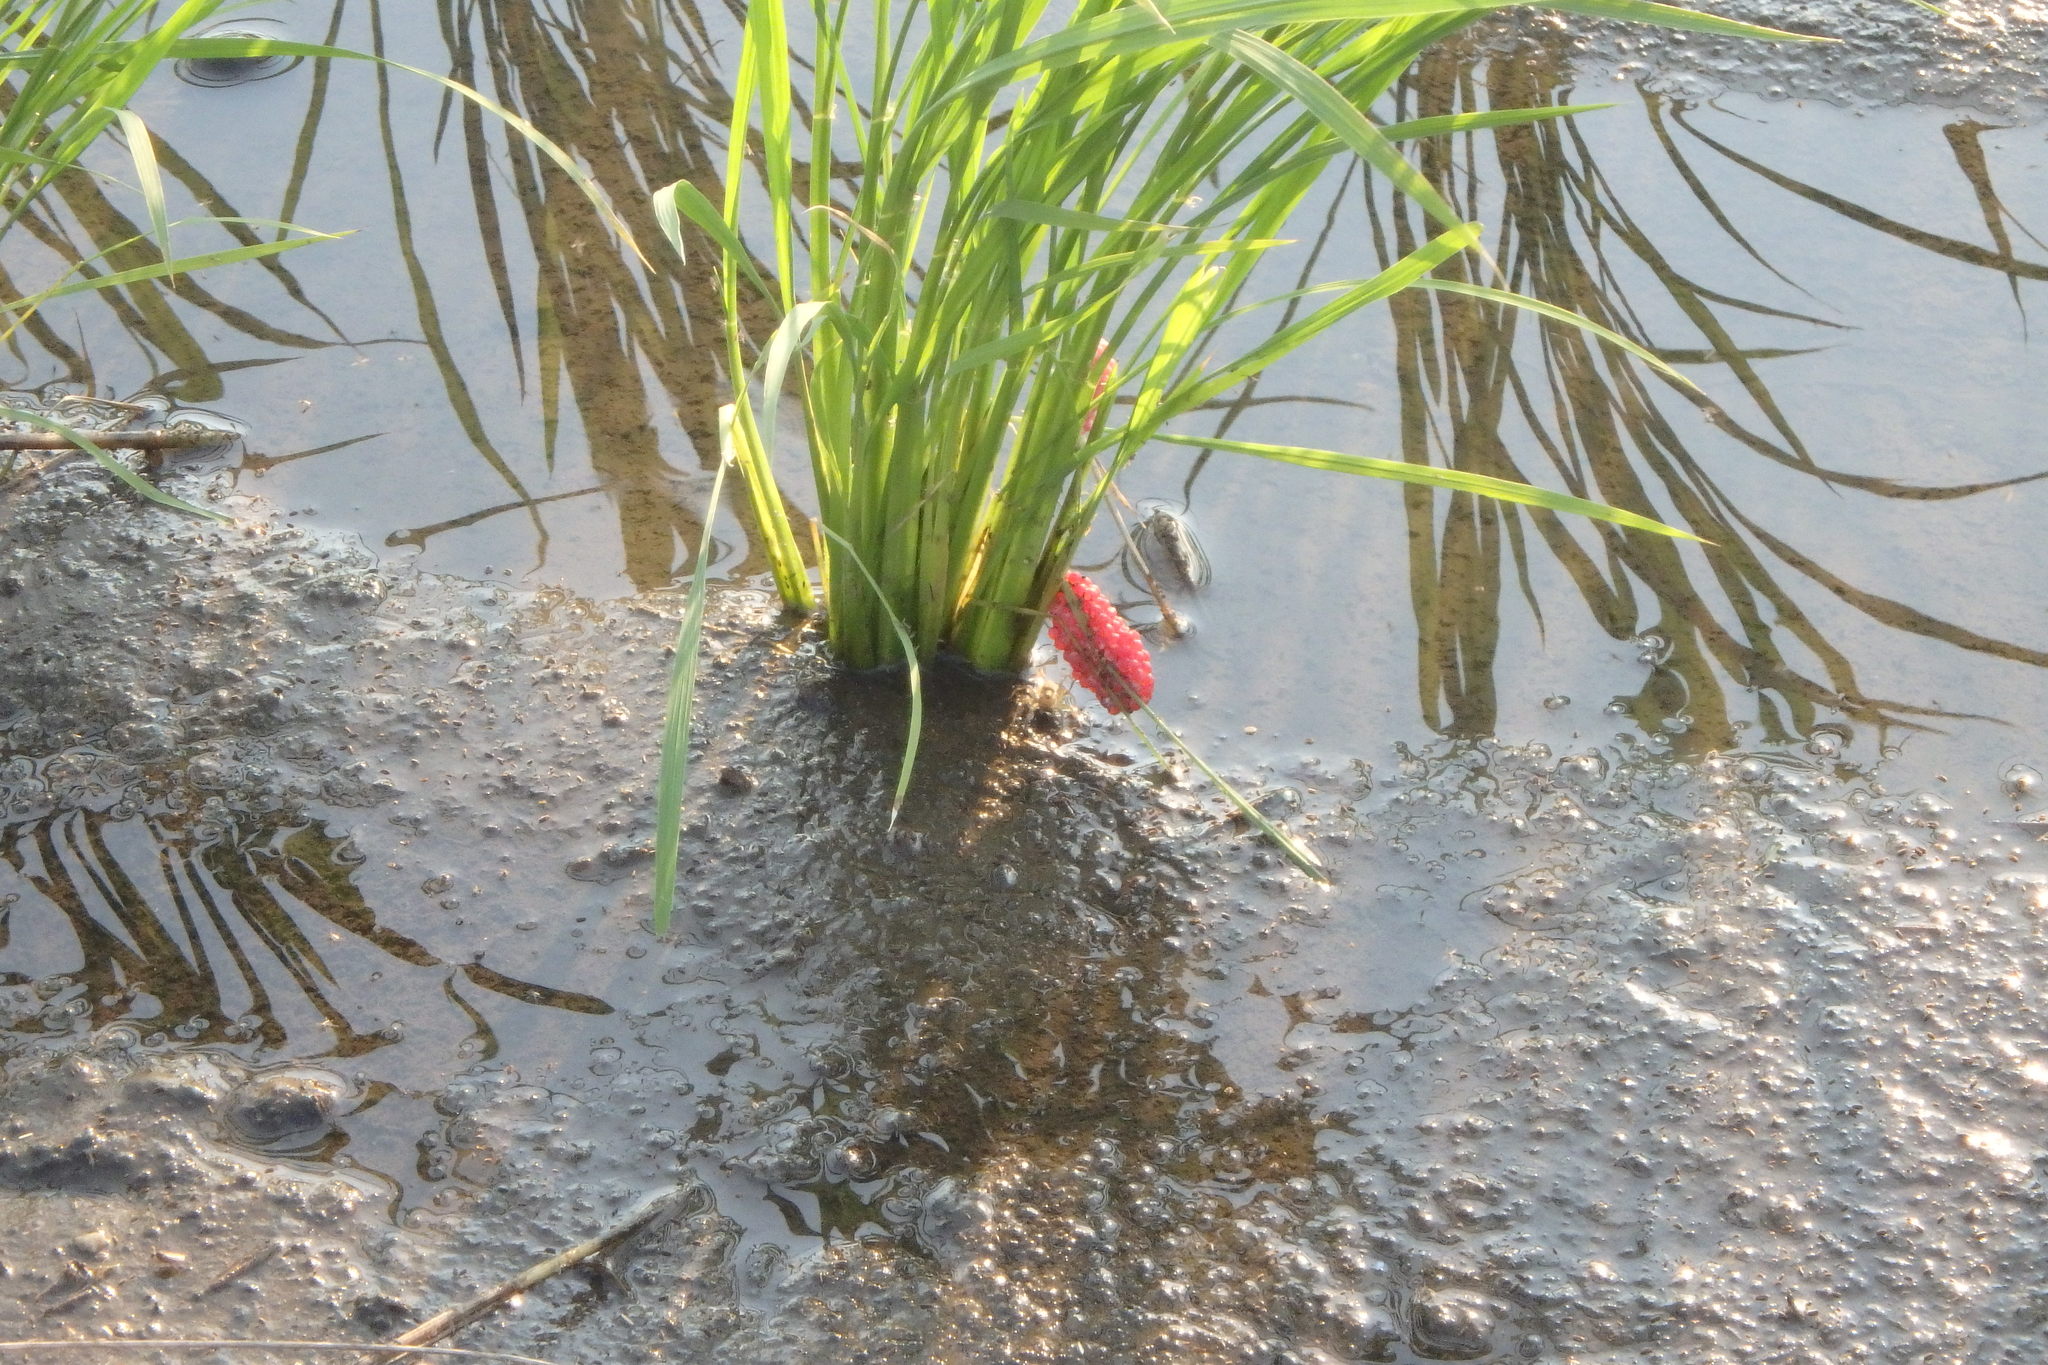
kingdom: Animalia
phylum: Mollusca
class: Gastropoda
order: Architaenioglossa
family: Ampullariidae
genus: Pomacea
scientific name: Pomacea canaliculata
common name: Channeled applesnail
